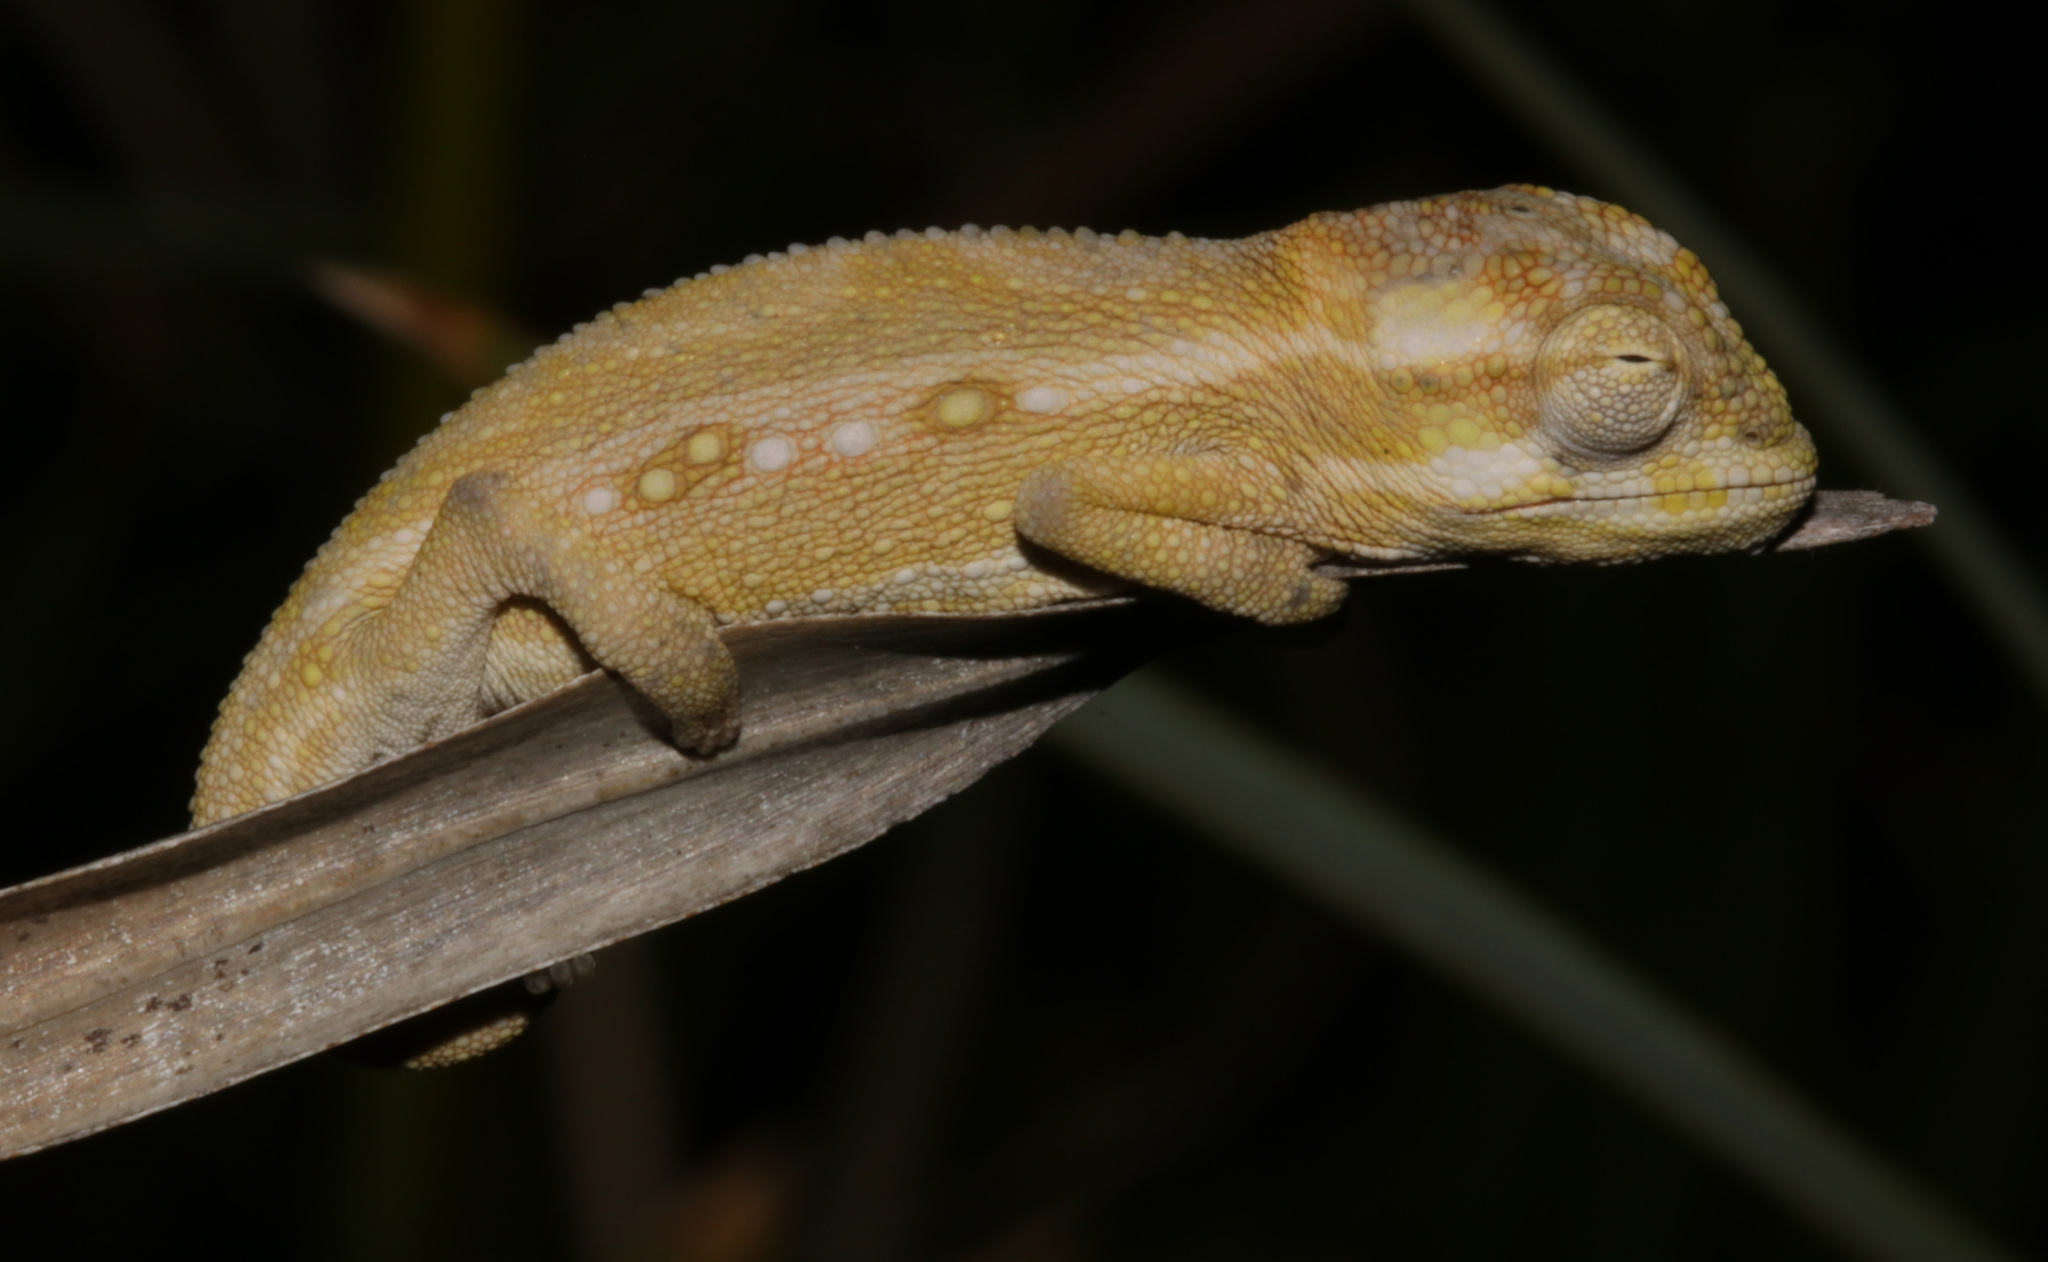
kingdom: Animalia
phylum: Chordata
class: Squamata
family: Chamaeleonidae
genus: Bradypodion
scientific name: Bradypodion pumilum
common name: Cape dwarf chameleon
